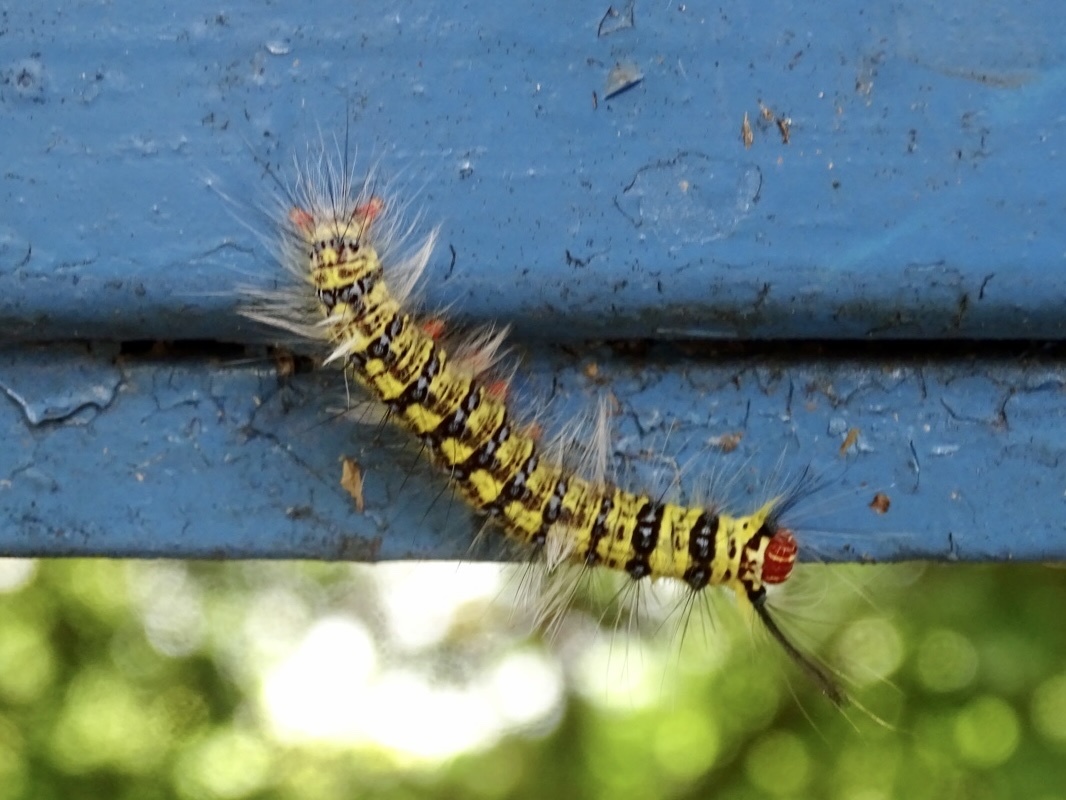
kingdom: Animalia
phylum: Arthropoda
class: Insecta
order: Lepidoptera
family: Lasiocampidae
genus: Trabala
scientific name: Trabala pallida
